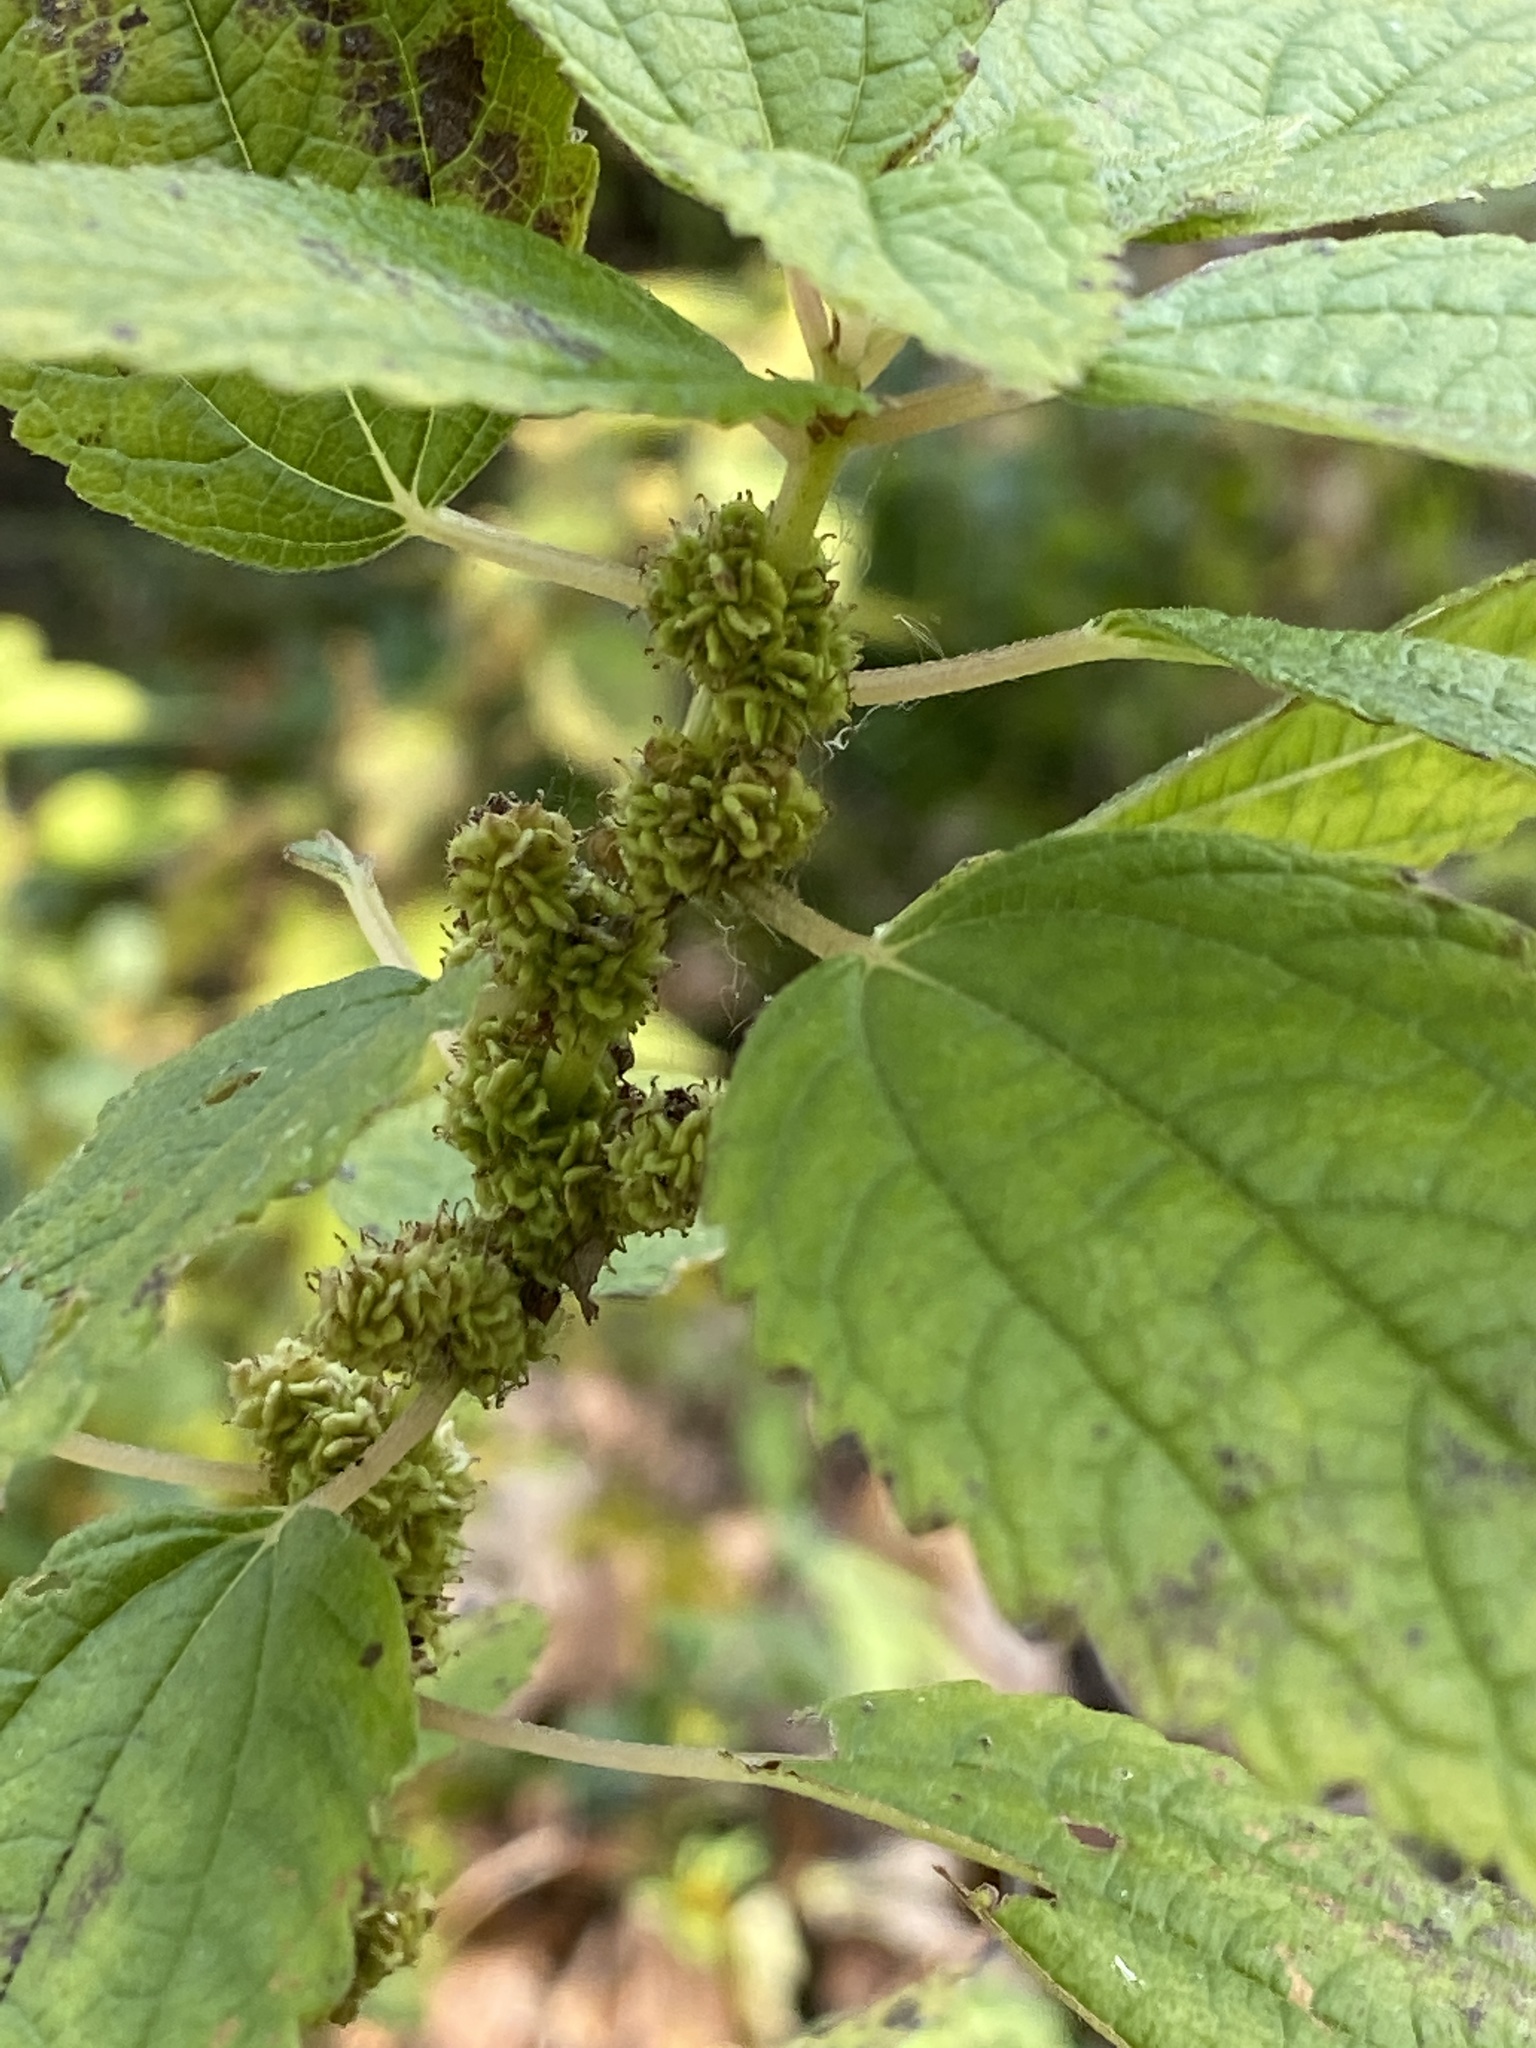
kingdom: Plantae
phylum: Tracheophyta
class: Magnoliopsida
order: Rosales
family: Urticaceae
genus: Boehmeria
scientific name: Boehmeria cylindrica
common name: Bog-hemp
